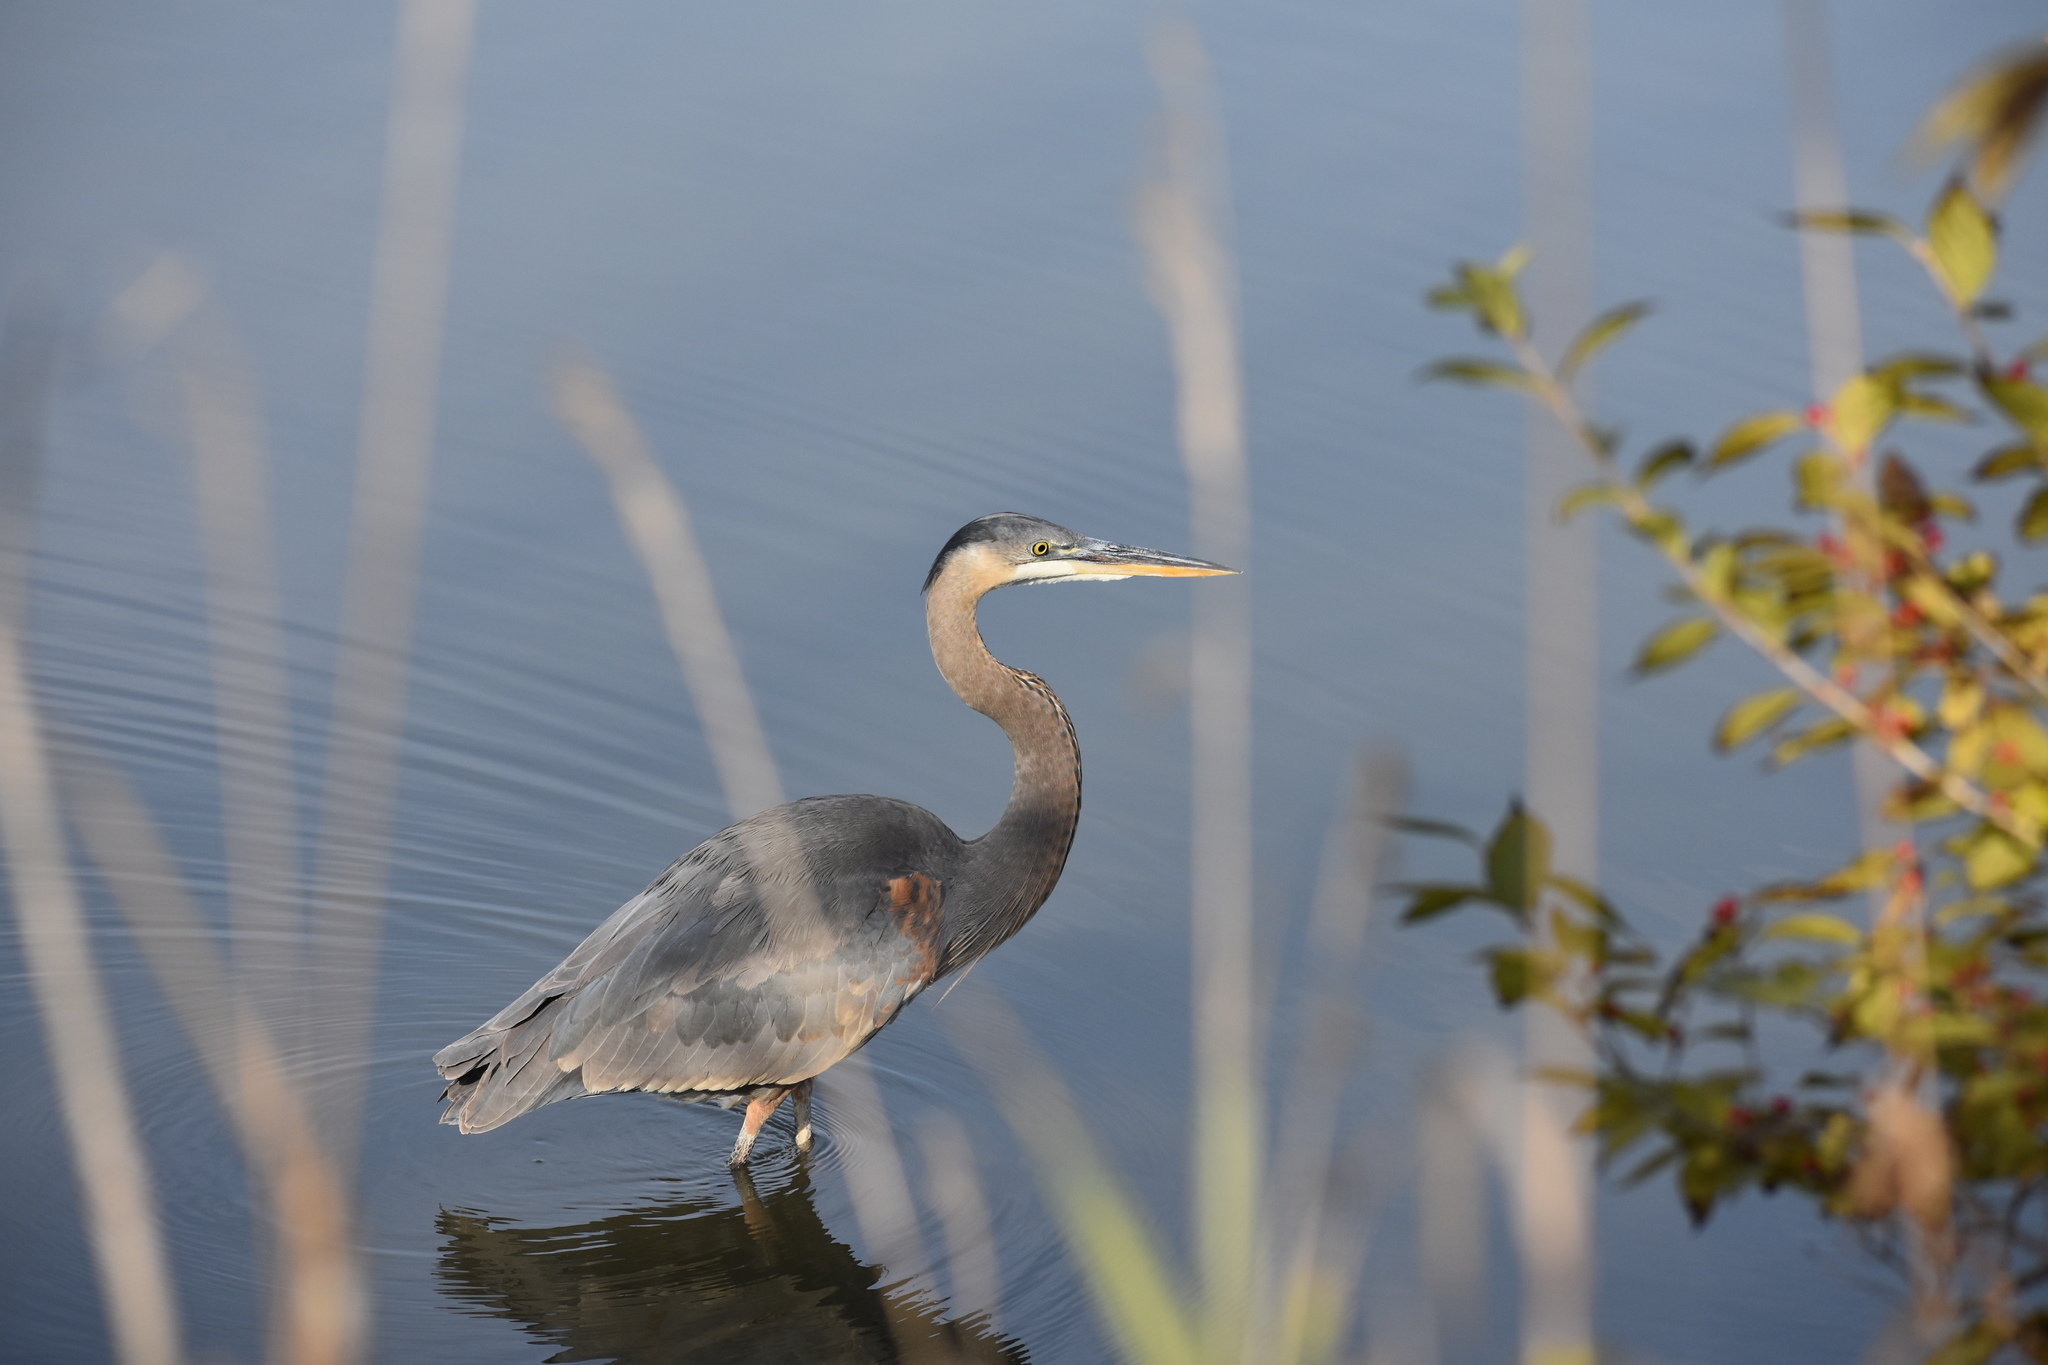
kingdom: Animalia
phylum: Chordata
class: Aves
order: Pelecaniformes
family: Ardeidae
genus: Ardea
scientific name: Ardea herodias
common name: Great blue heron
